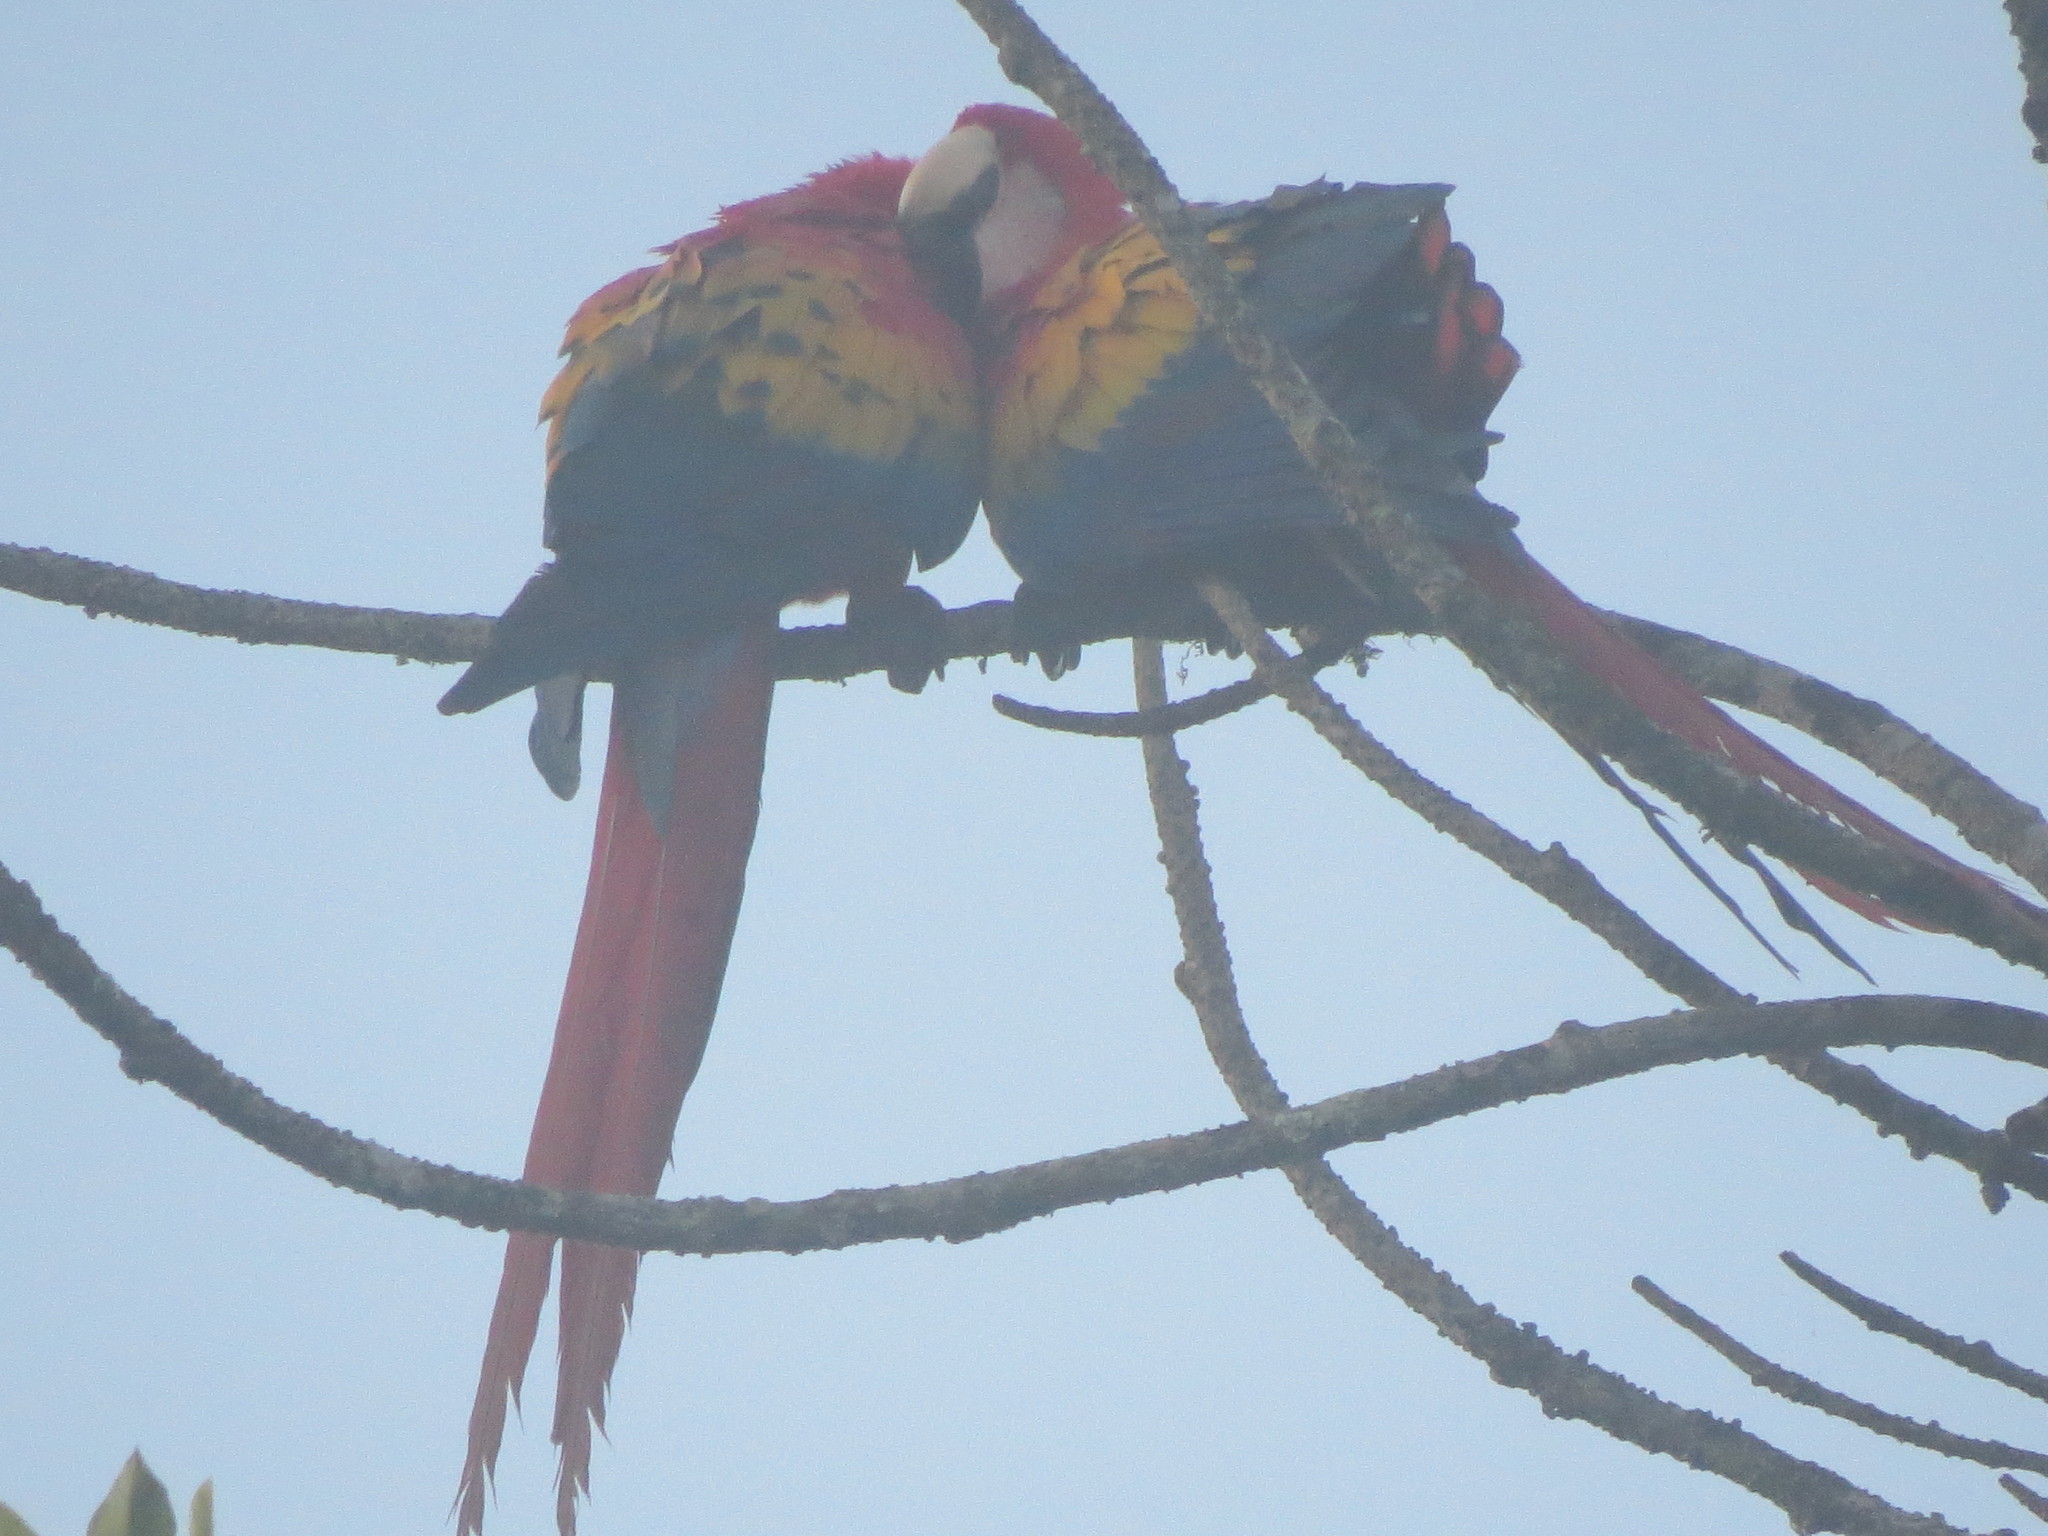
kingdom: Animalia
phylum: Chordata
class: Aves
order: Psittaciformes
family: Psittacidae
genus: Ara
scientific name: Ara macao
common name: Scarlet macaw
